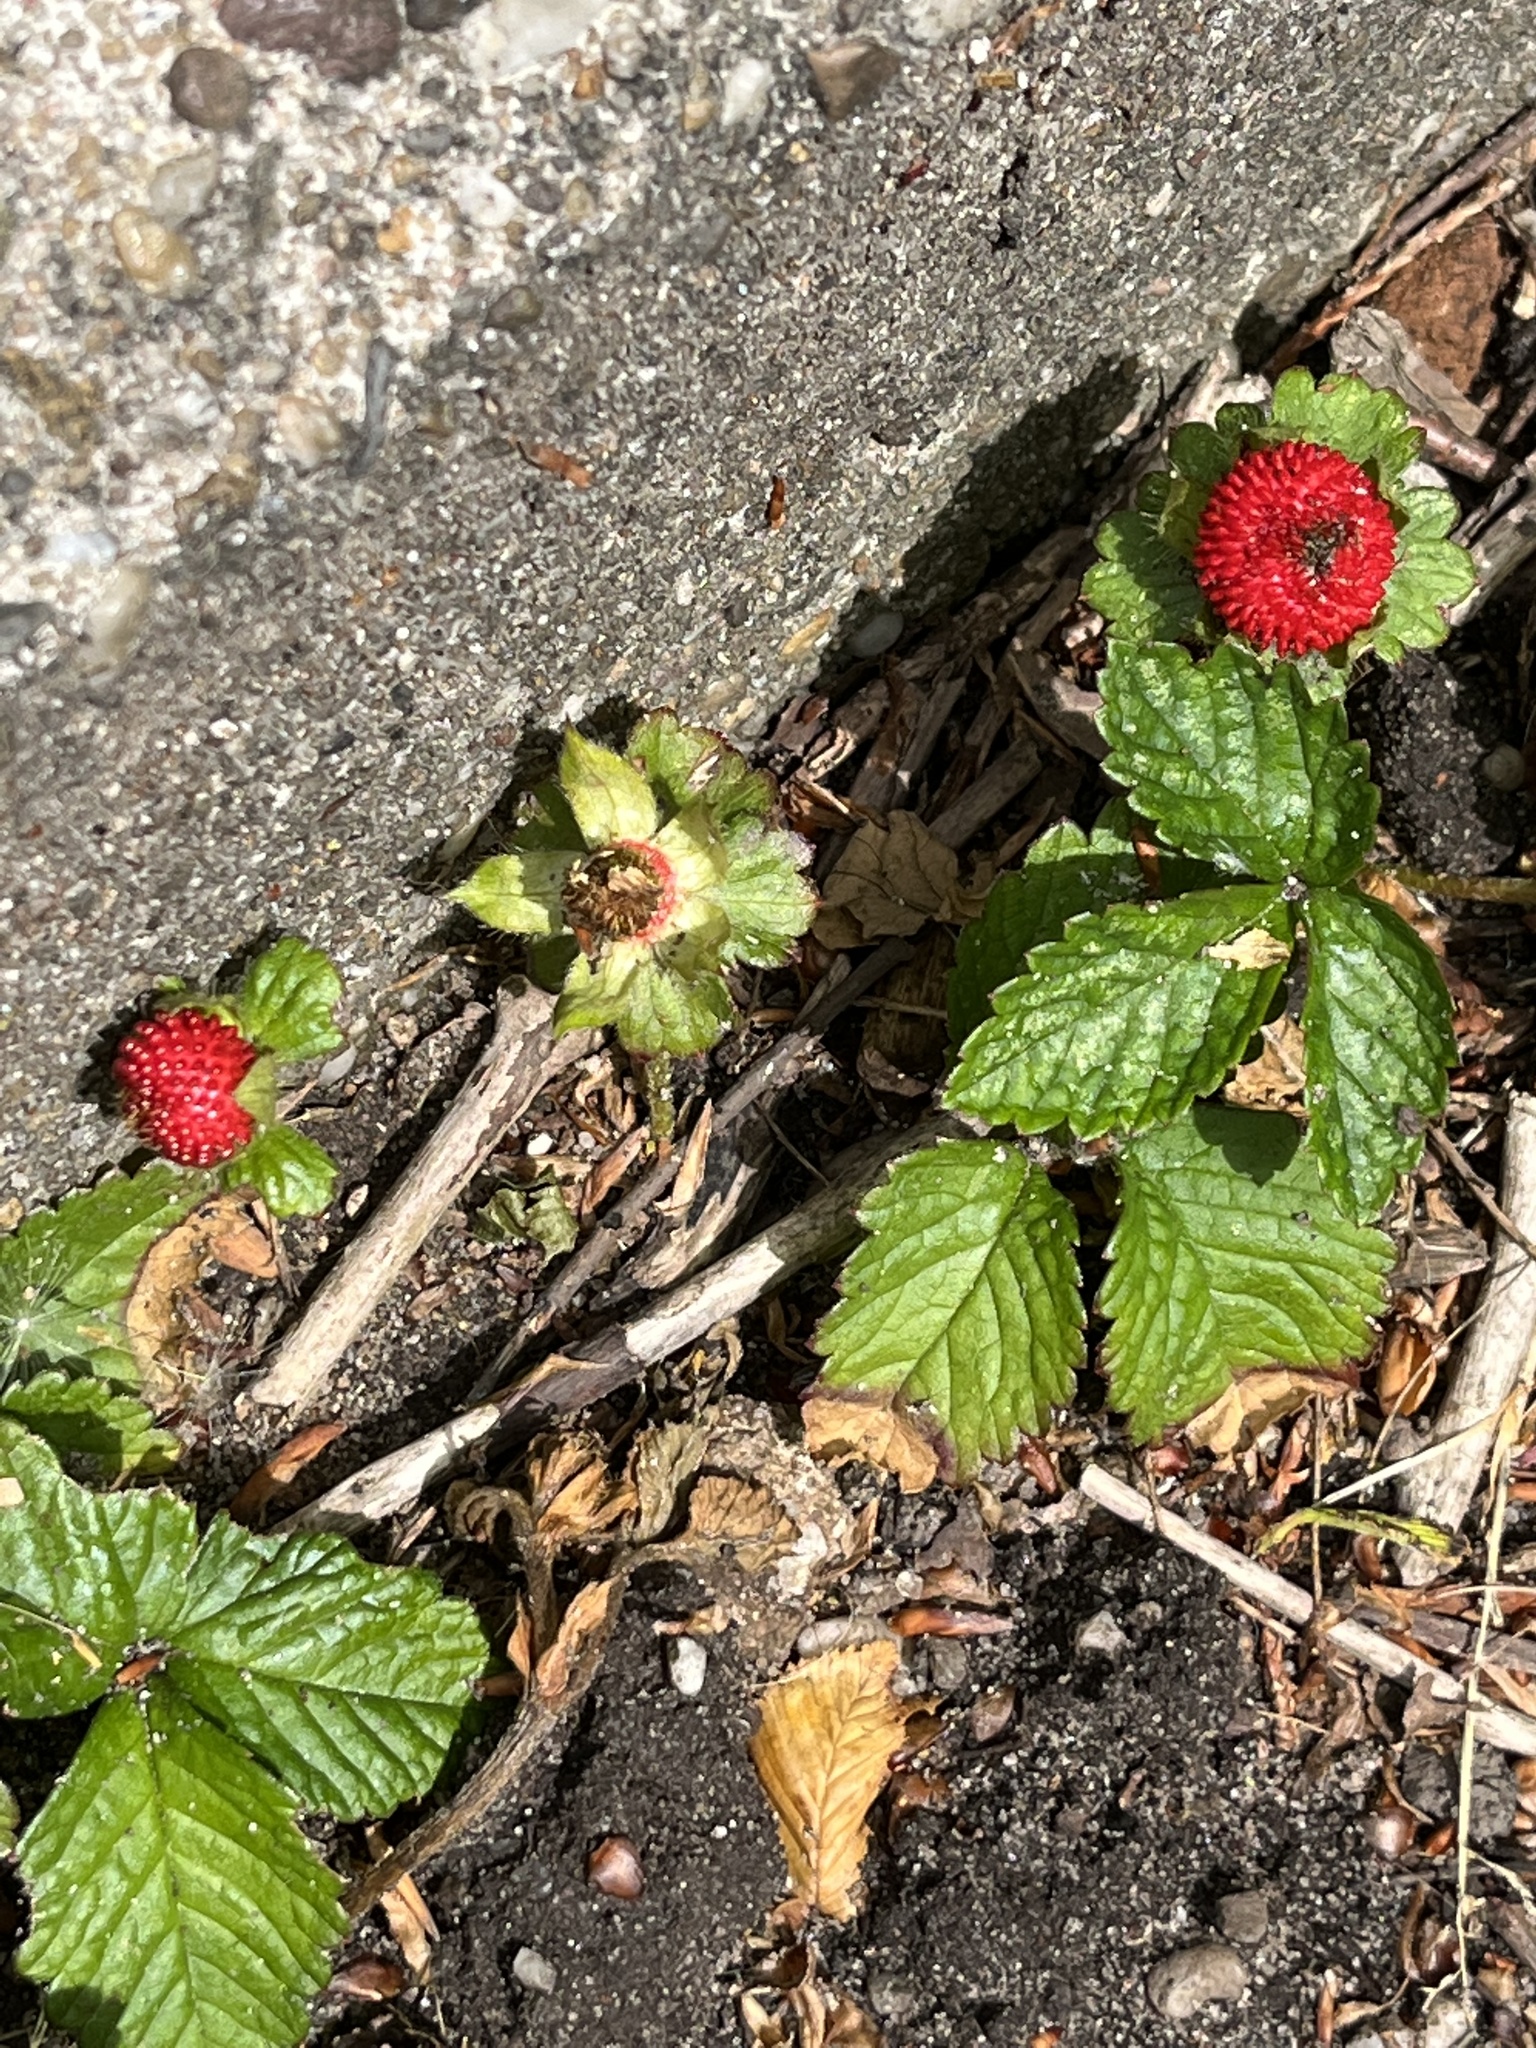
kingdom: Plantae
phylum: Tracheophyta
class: Magnoliopsida
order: Rosales
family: Rosaceae
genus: Potentilla
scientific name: Potentilla indica
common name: Yellow-flowered strawberry
